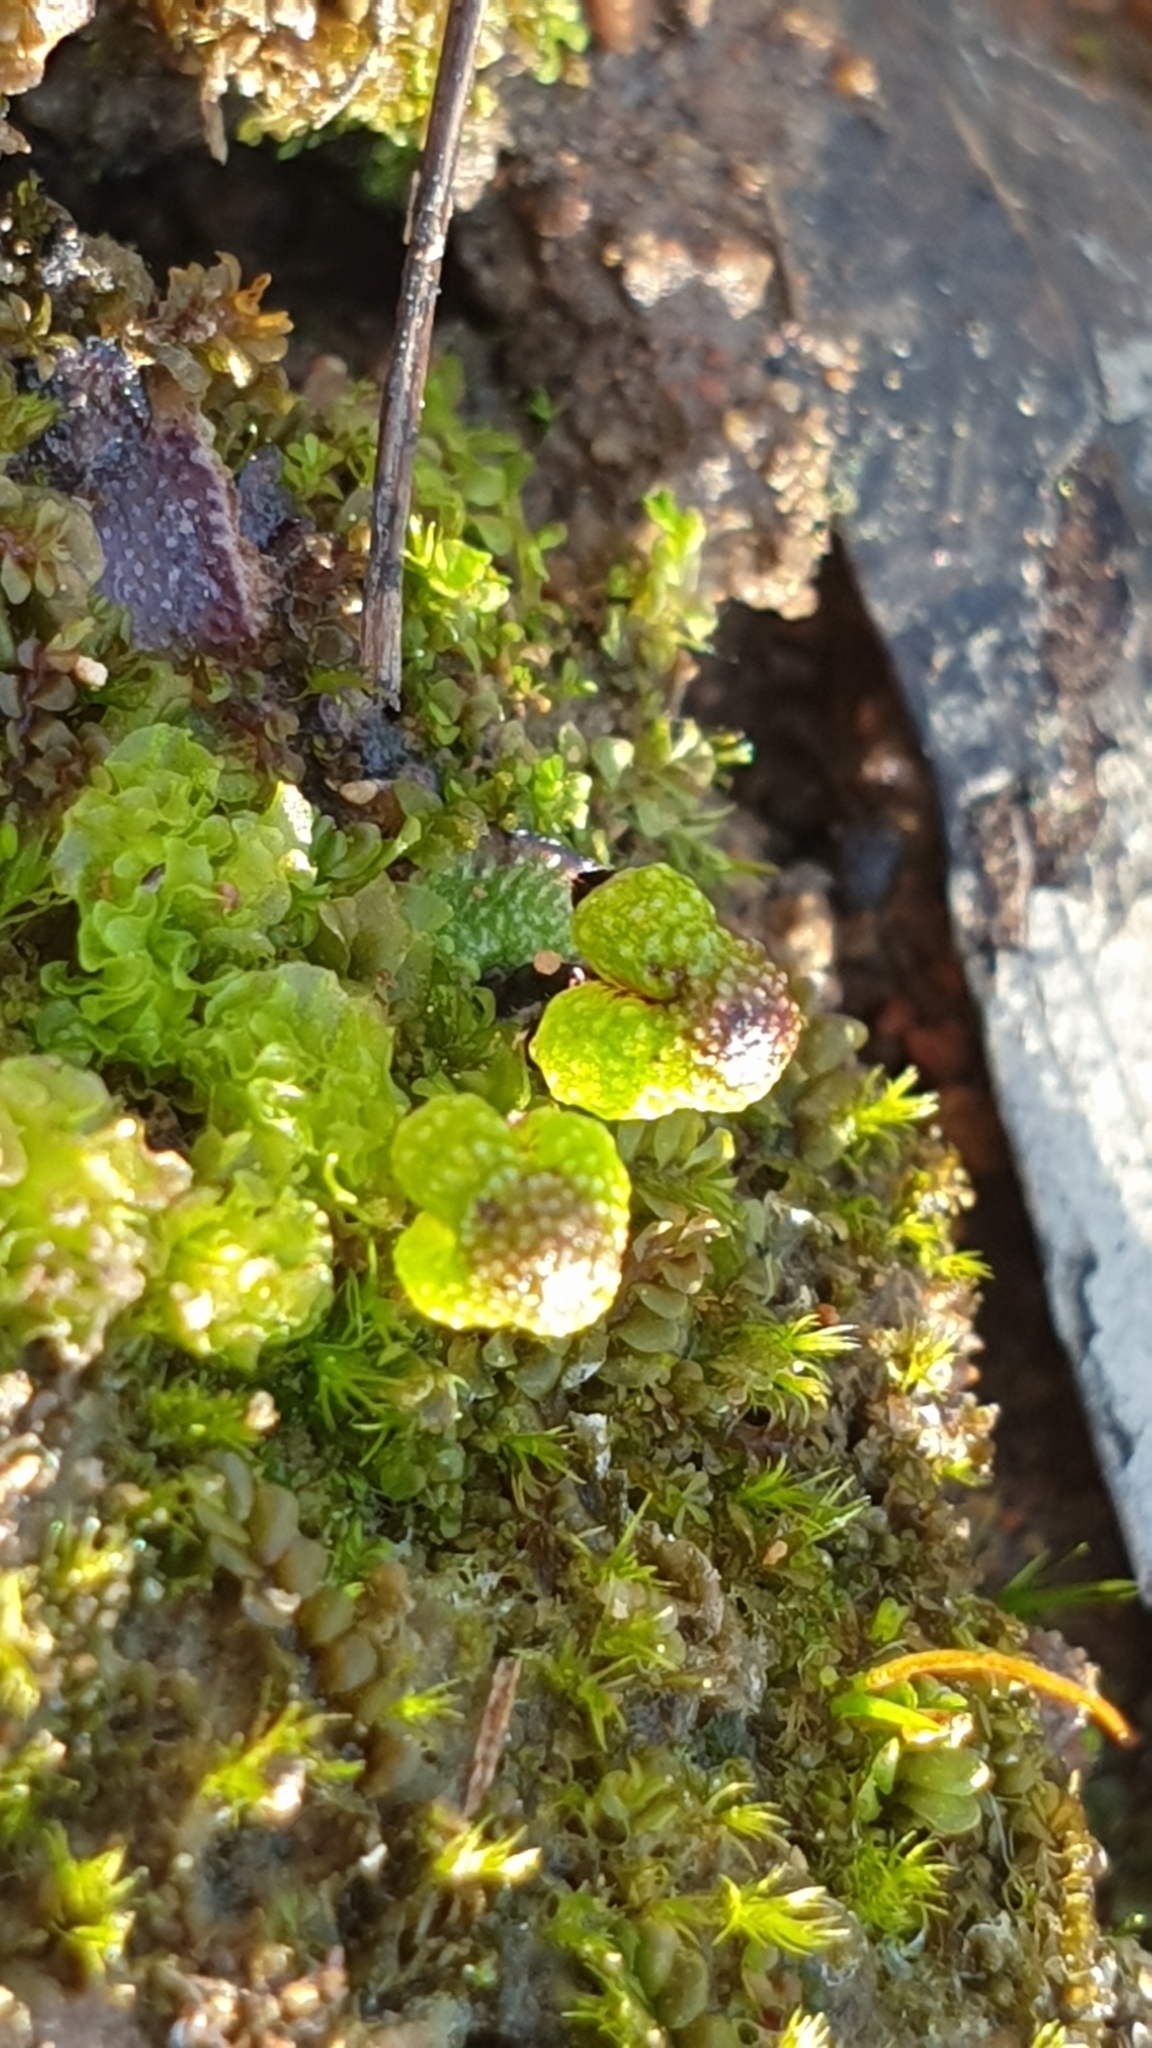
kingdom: Plantae
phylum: Marchantiophyta
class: Marchantiopsida
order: Marchantiales
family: Aytoniaceae
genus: Asterella
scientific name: Asterella drummondii
